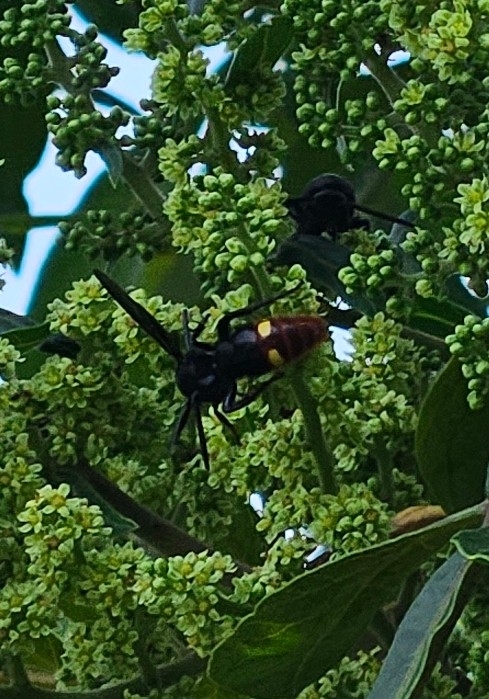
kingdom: Animalia
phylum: Arthropoda
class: Insecta
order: Hymenoptera
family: Scoliidae
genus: Scolia
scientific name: Scolia dubia
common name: Blue-winged scoliid wasp
